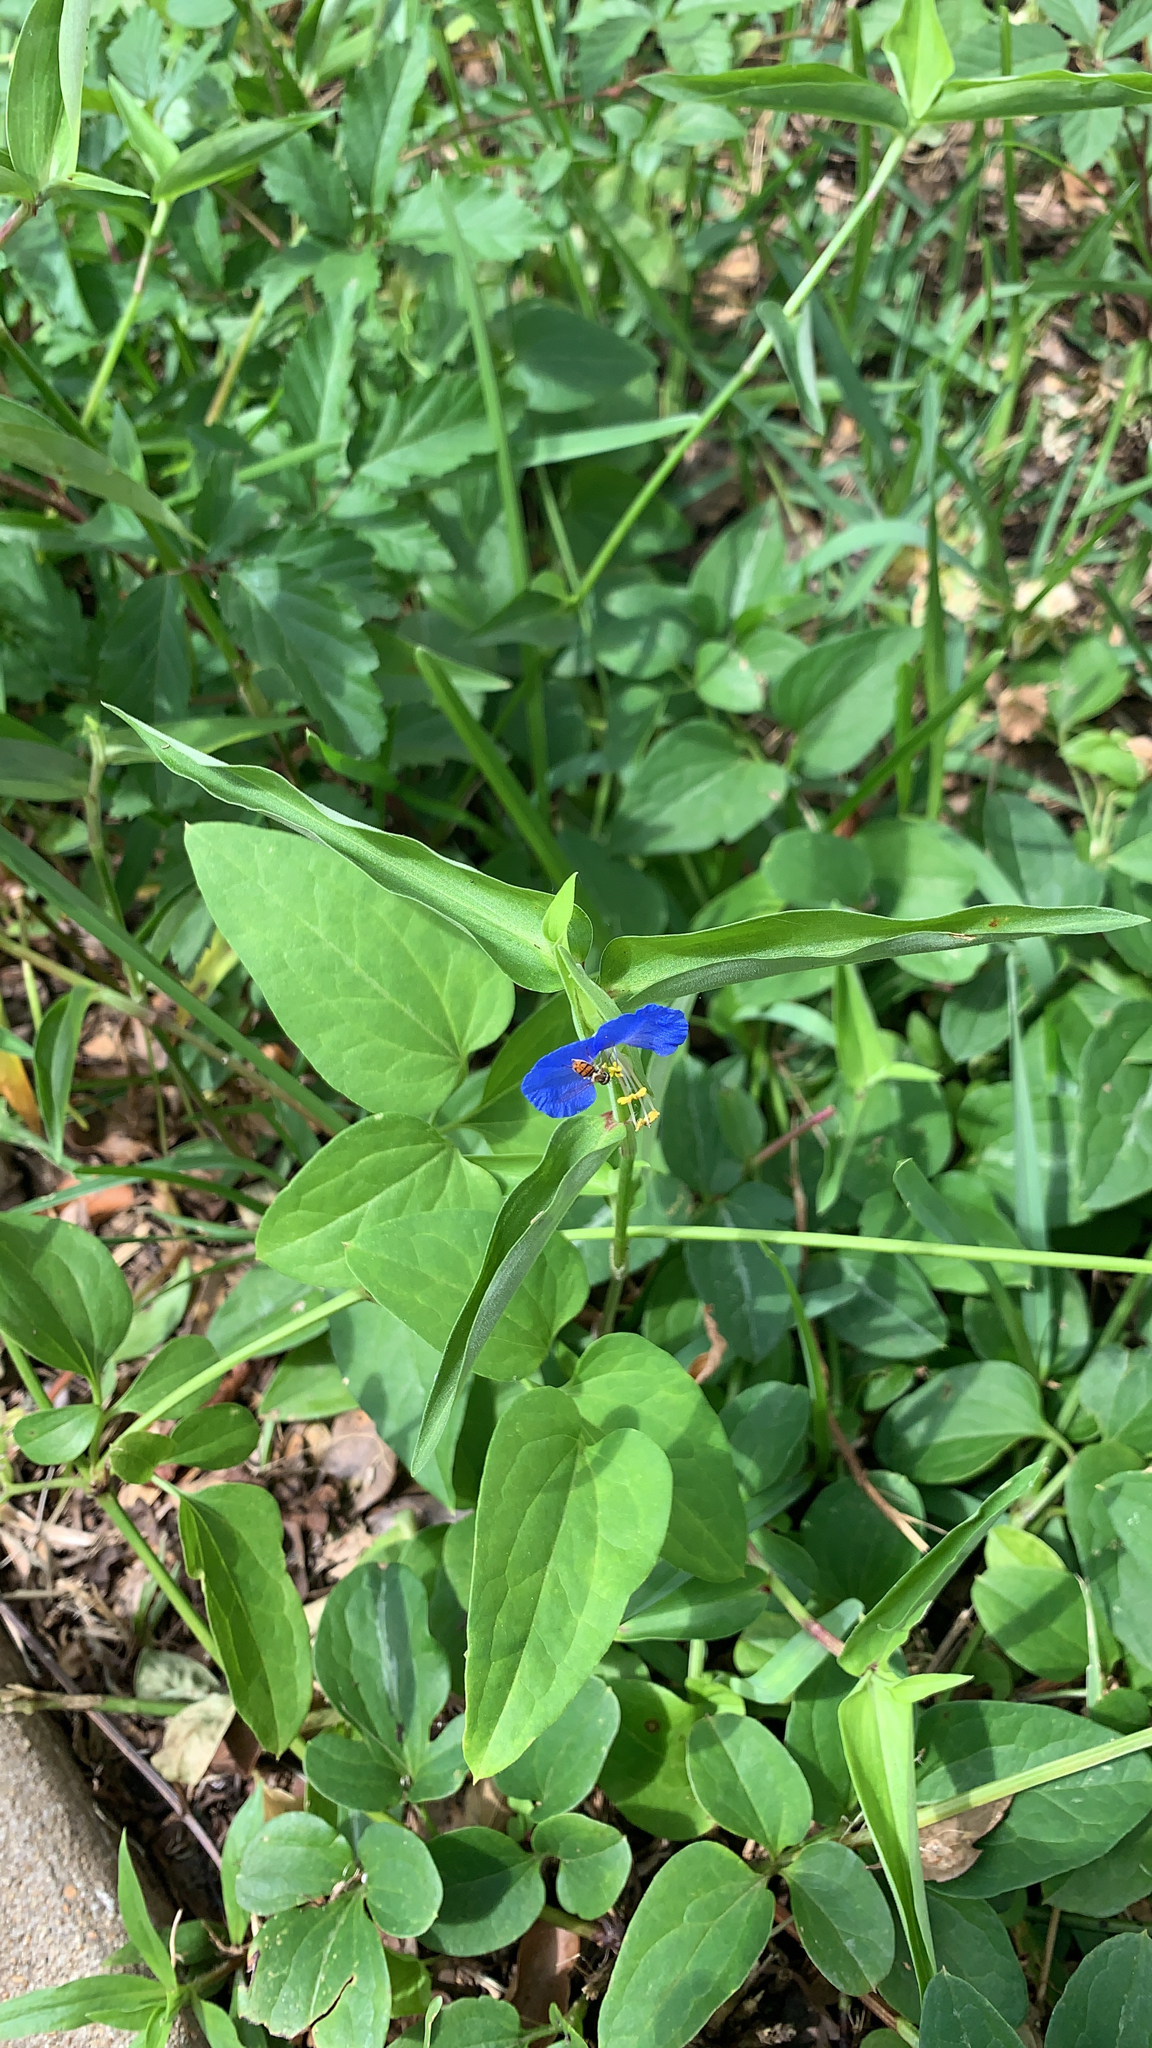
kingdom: Plantae
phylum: Tracheophyta
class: Liliopsida
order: Commelinales
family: Commelinaceae
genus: Commelina
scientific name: Commelina communis
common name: Asiatic dayflower
